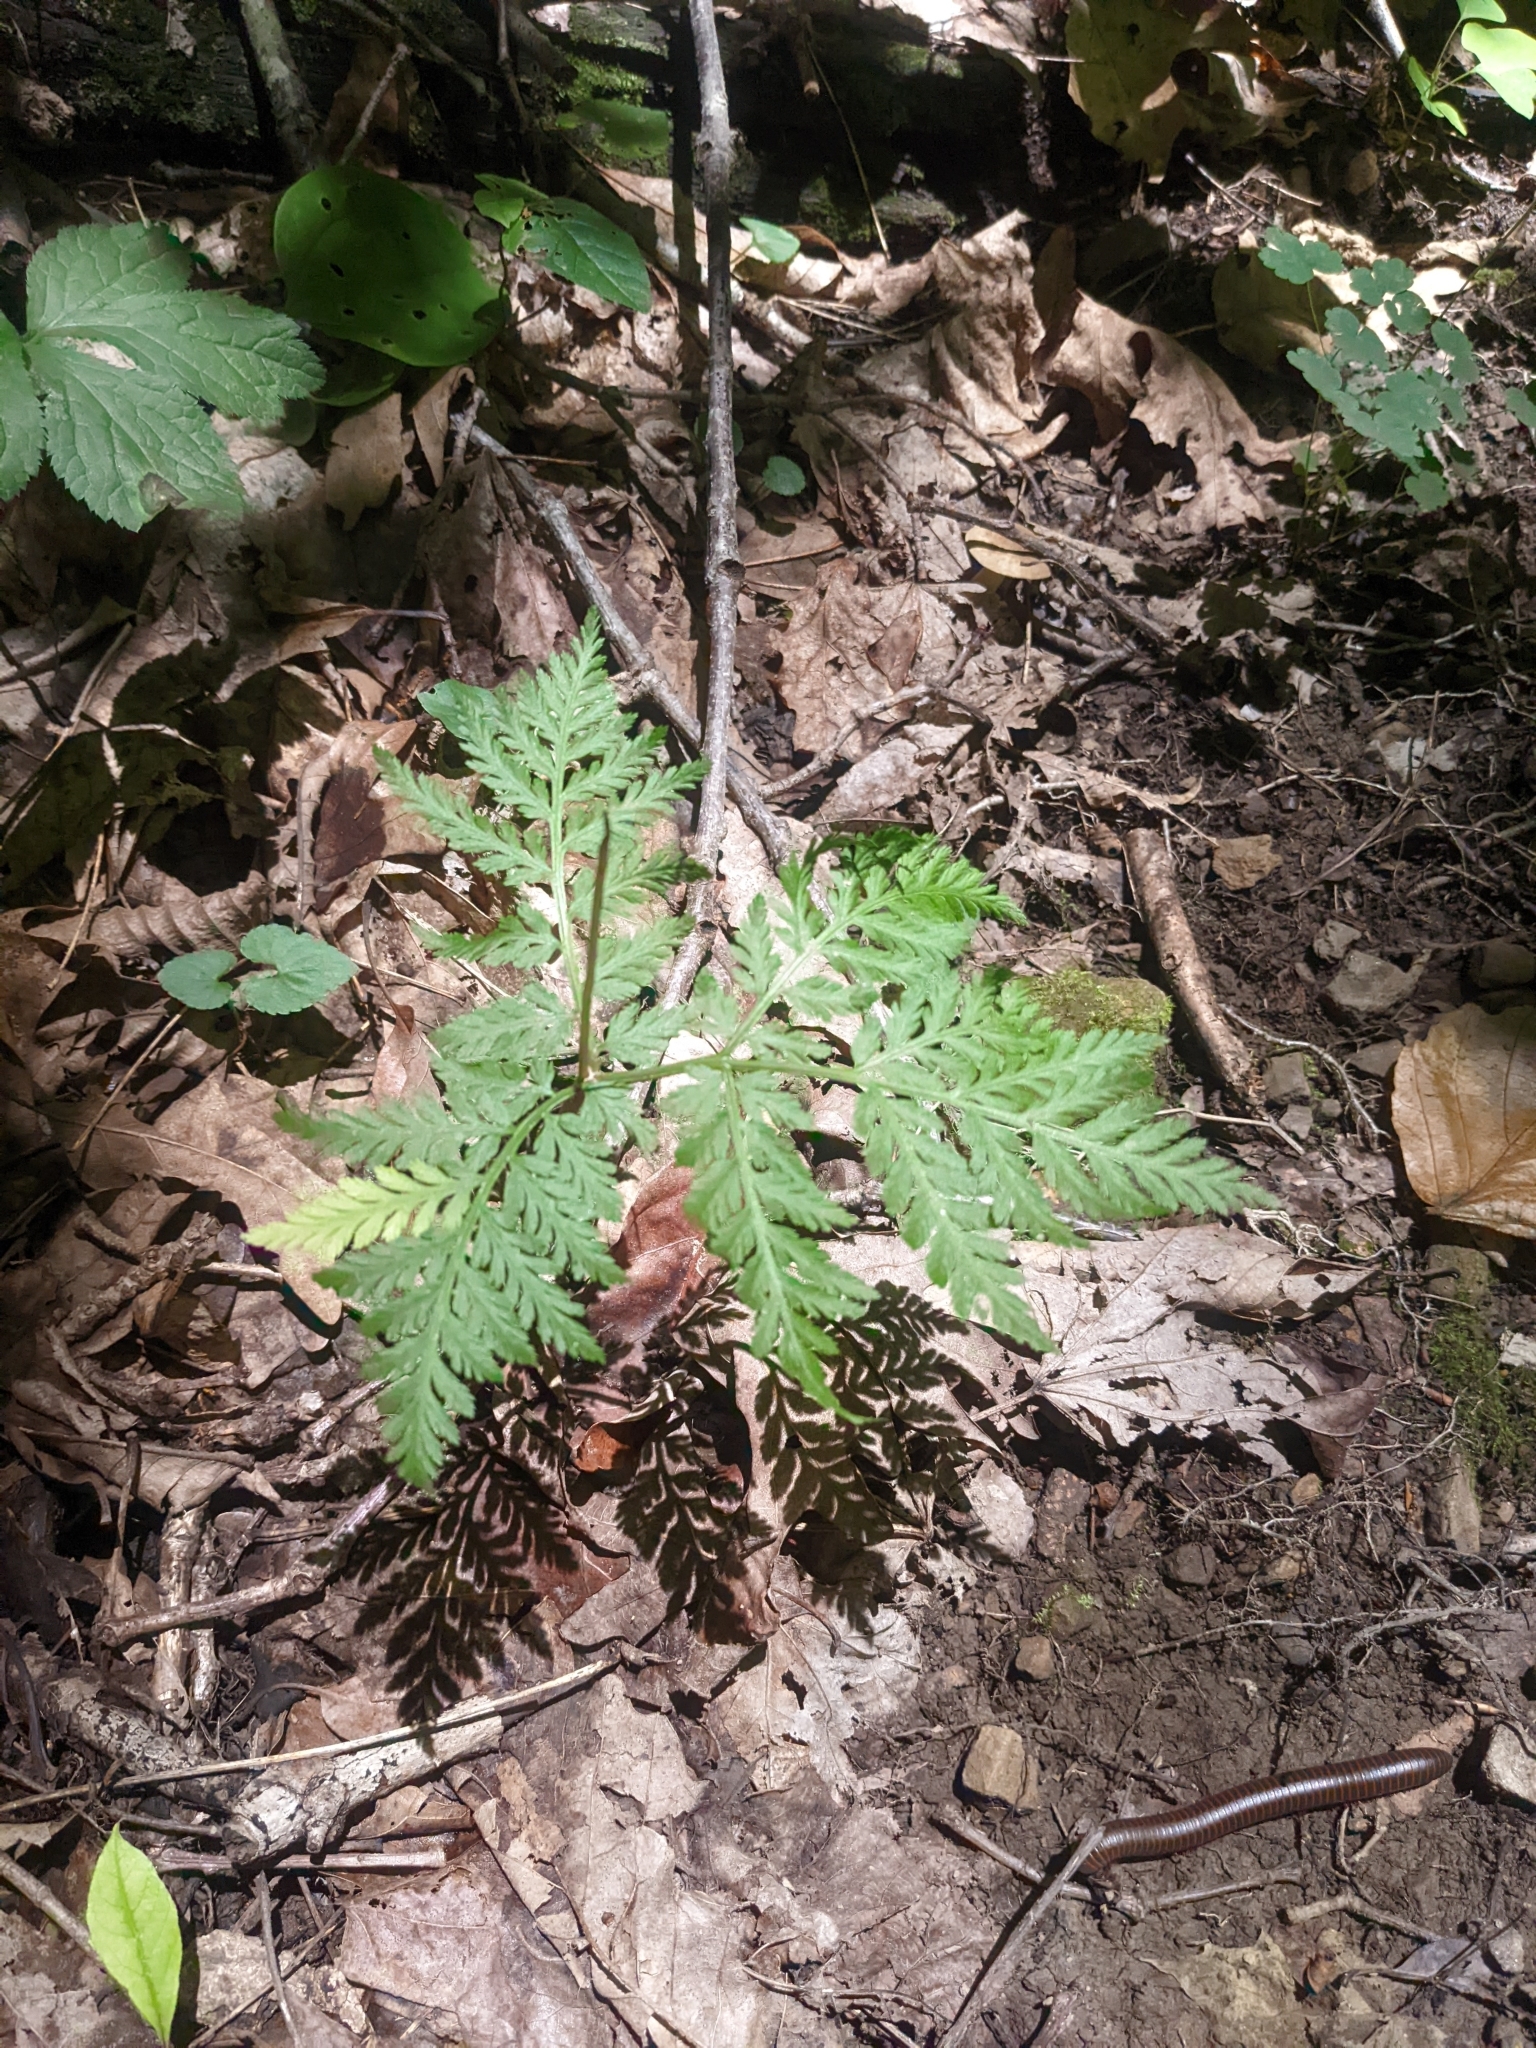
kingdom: Plantae
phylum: Tracheophyta
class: Polypodiopsida
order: Ophioglossales
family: Ophioglossaceae
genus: Botrypus
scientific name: Botrypus virginianus
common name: Common grapefern
